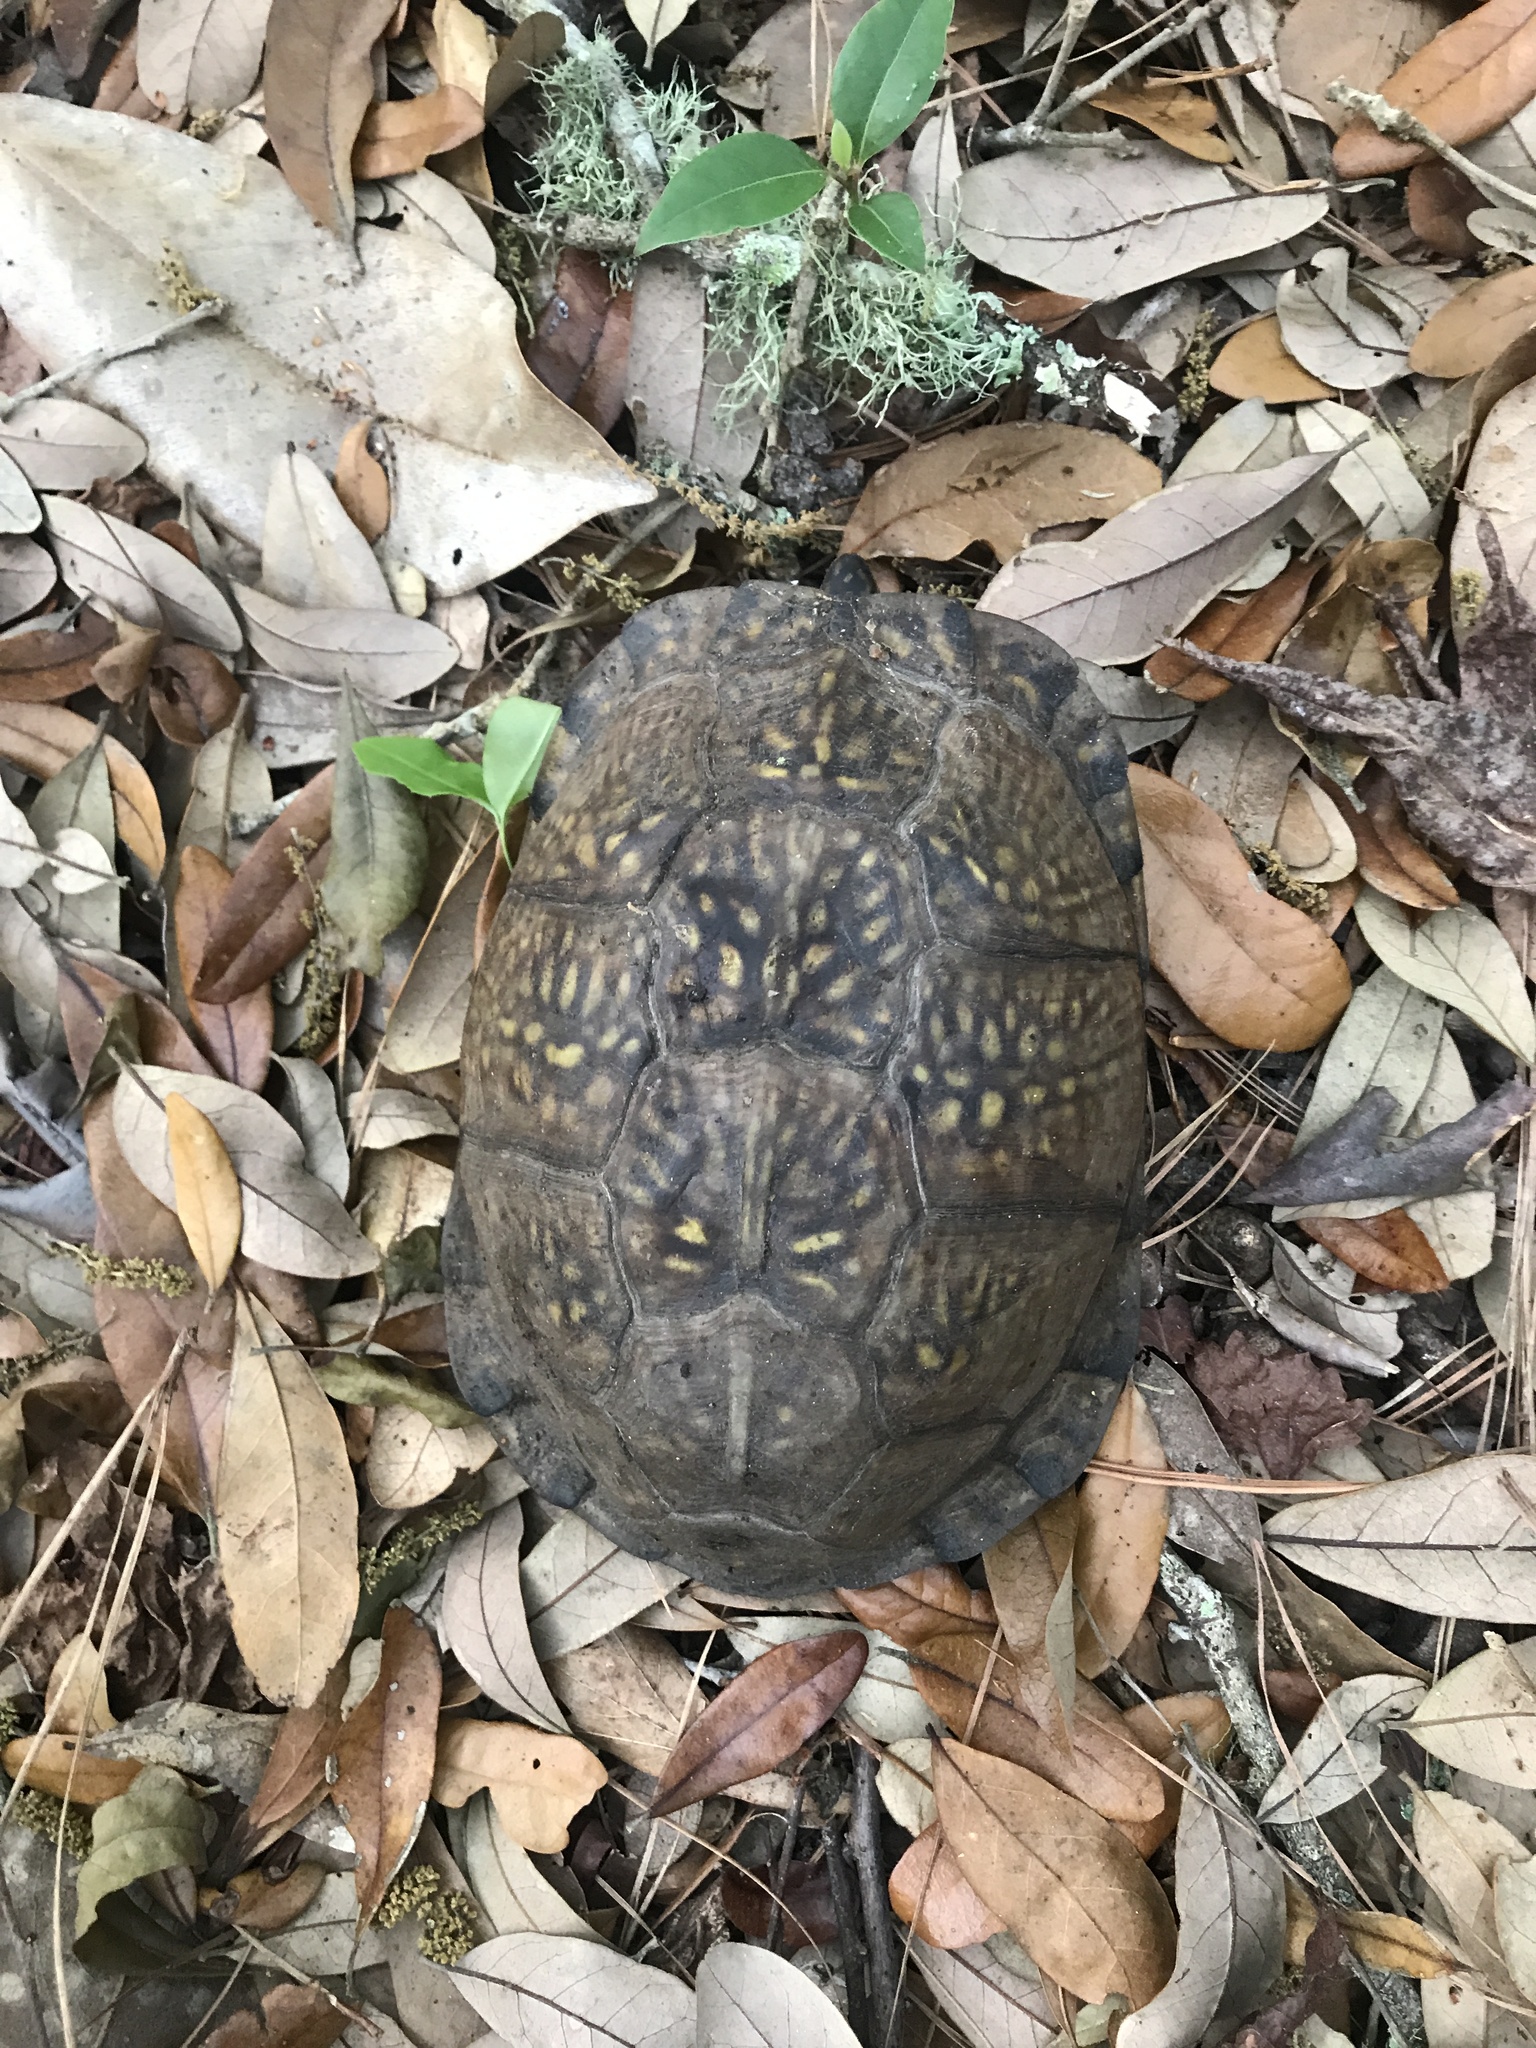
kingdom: Animalia
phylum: Chordata
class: Testudines
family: Emydidae
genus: Terrapene
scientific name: Terrapene carolina
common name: Common box turtle
